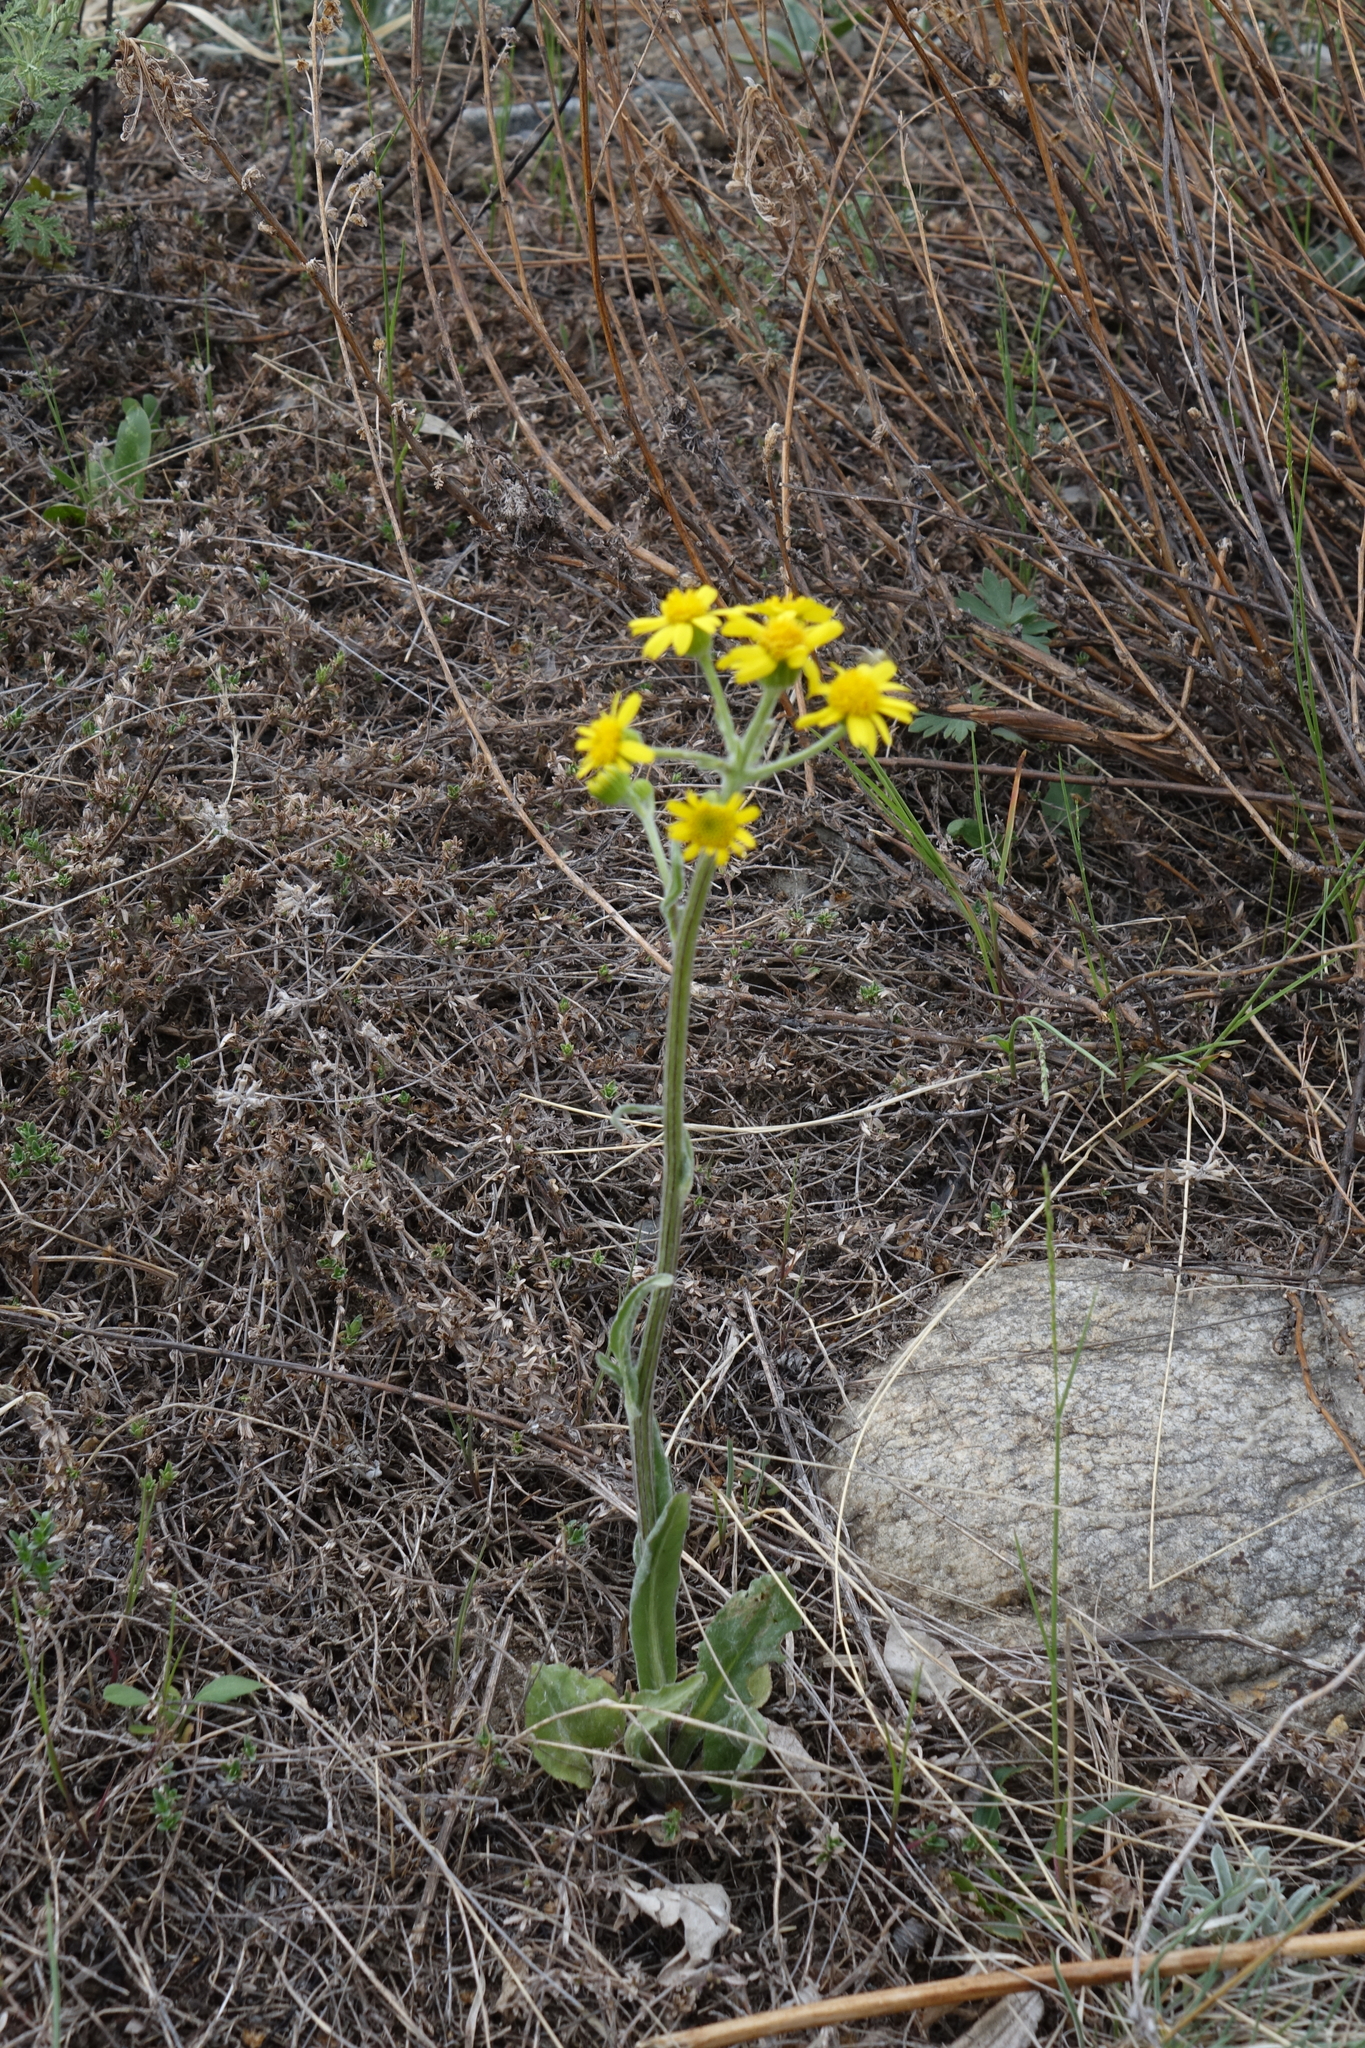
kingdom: Plantae
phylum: Tracheophyta
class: Magnoliopsida
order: Asterales
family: Asteraceae
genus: Tephroseris
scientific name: Tephroseris integrifolia
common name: Field fleawort
